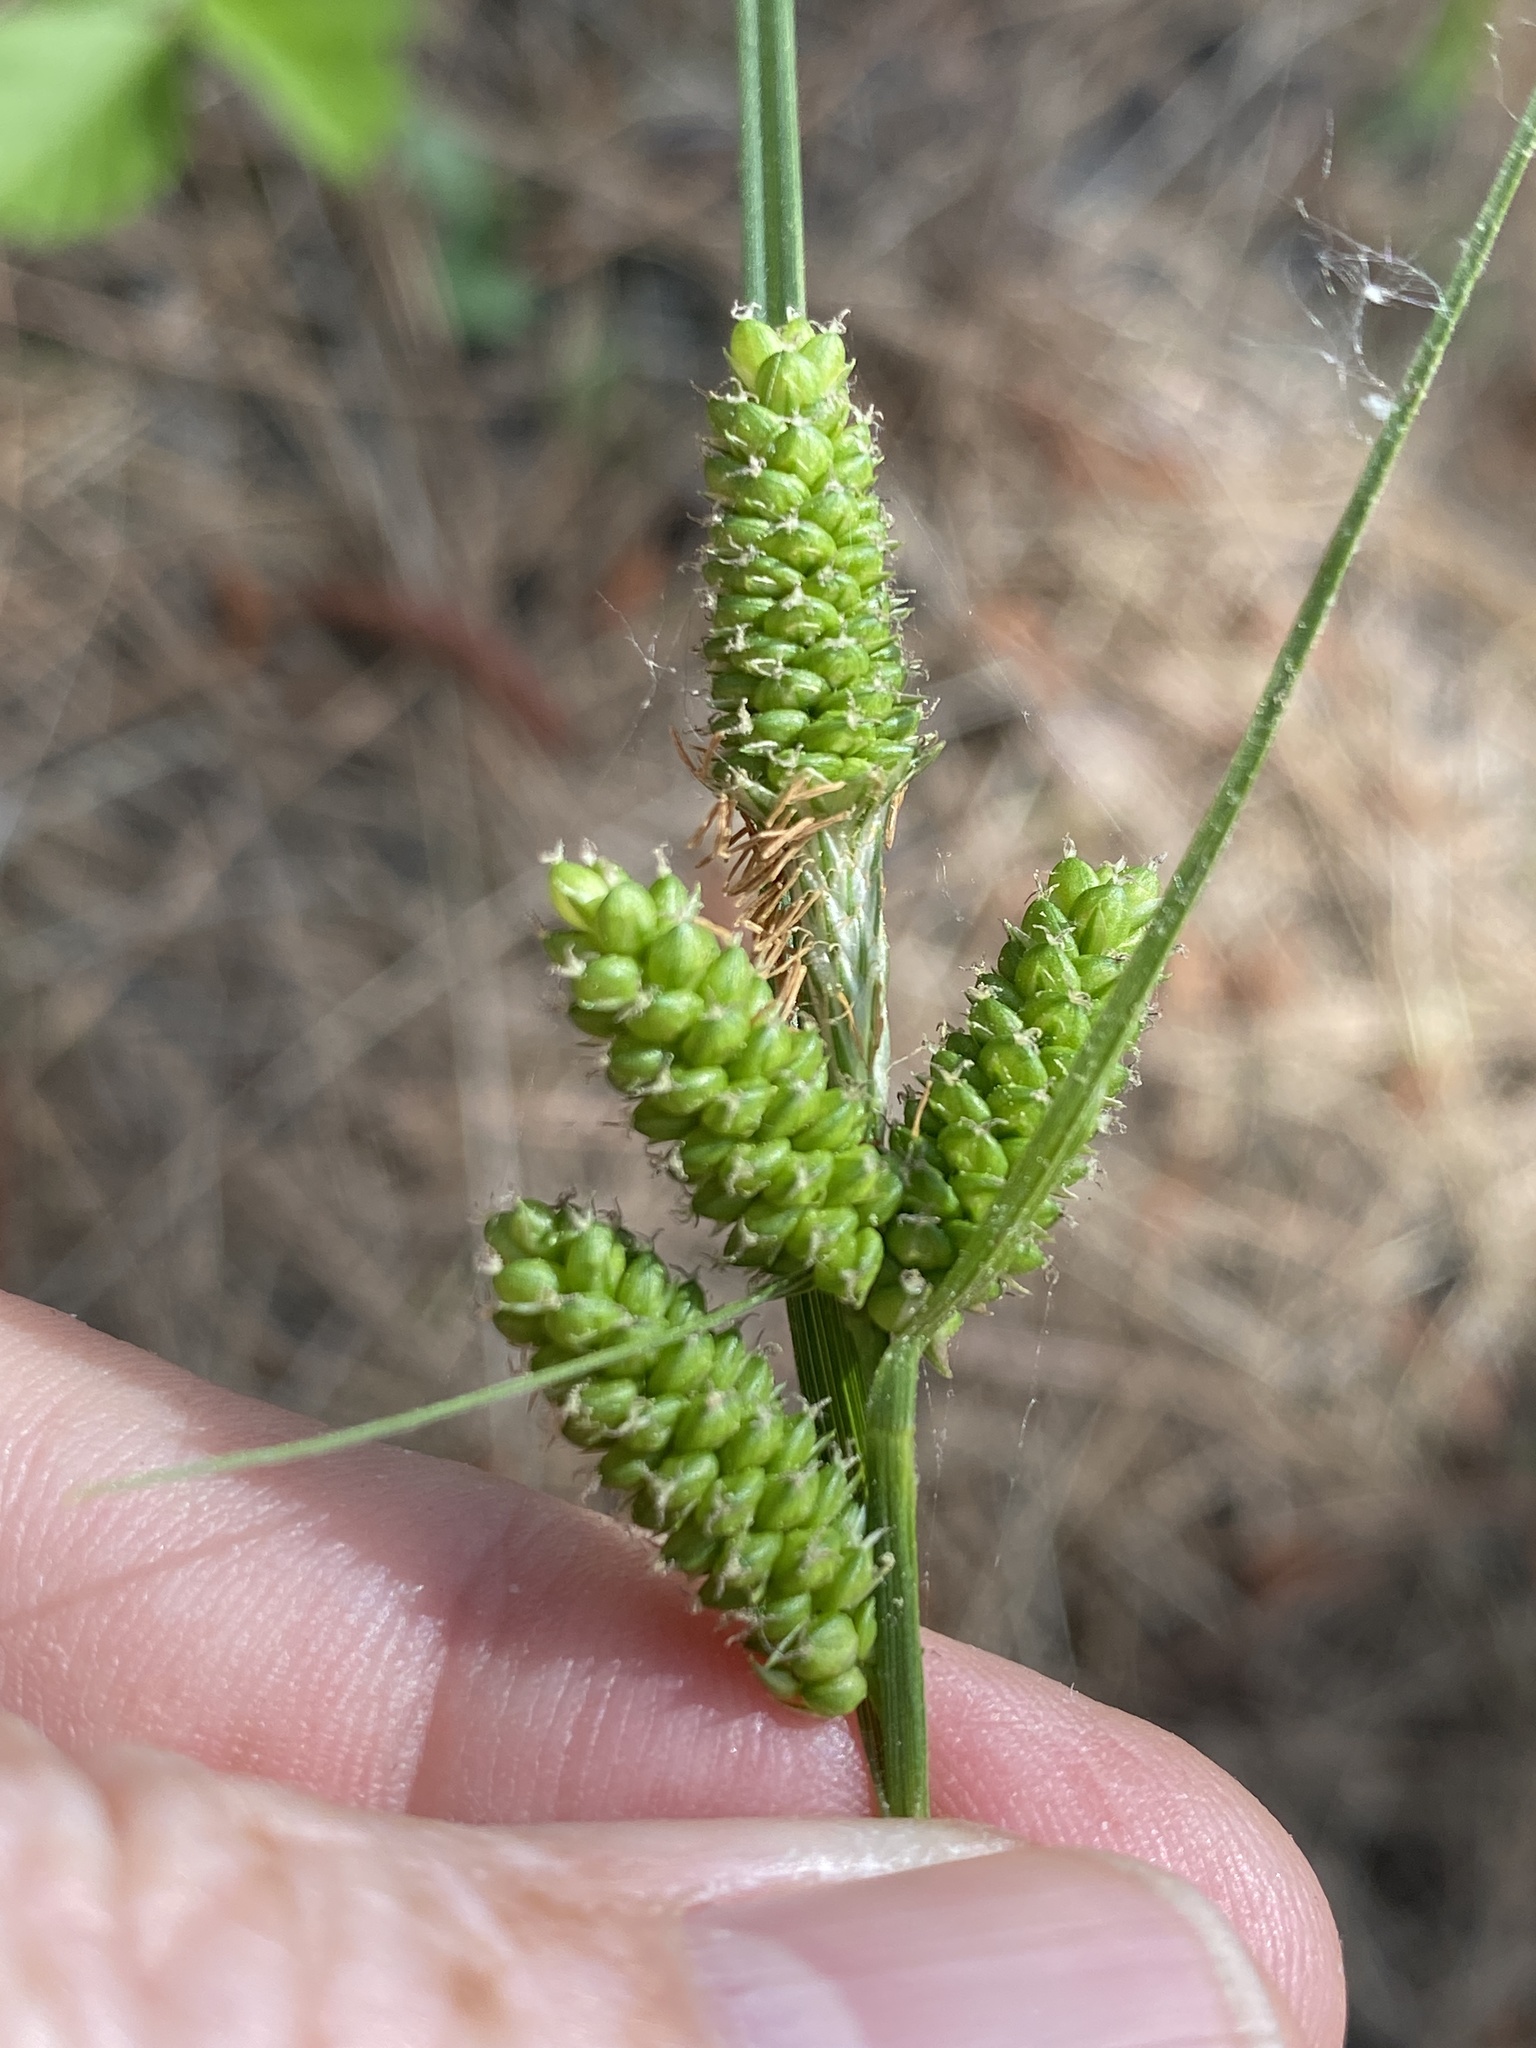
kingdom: Plantae
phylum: Tracheophyta
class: Liliopsida
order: Poales
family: Cyperaceae
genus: Carex
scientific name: Carex complanata
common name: Hirsute sedge
